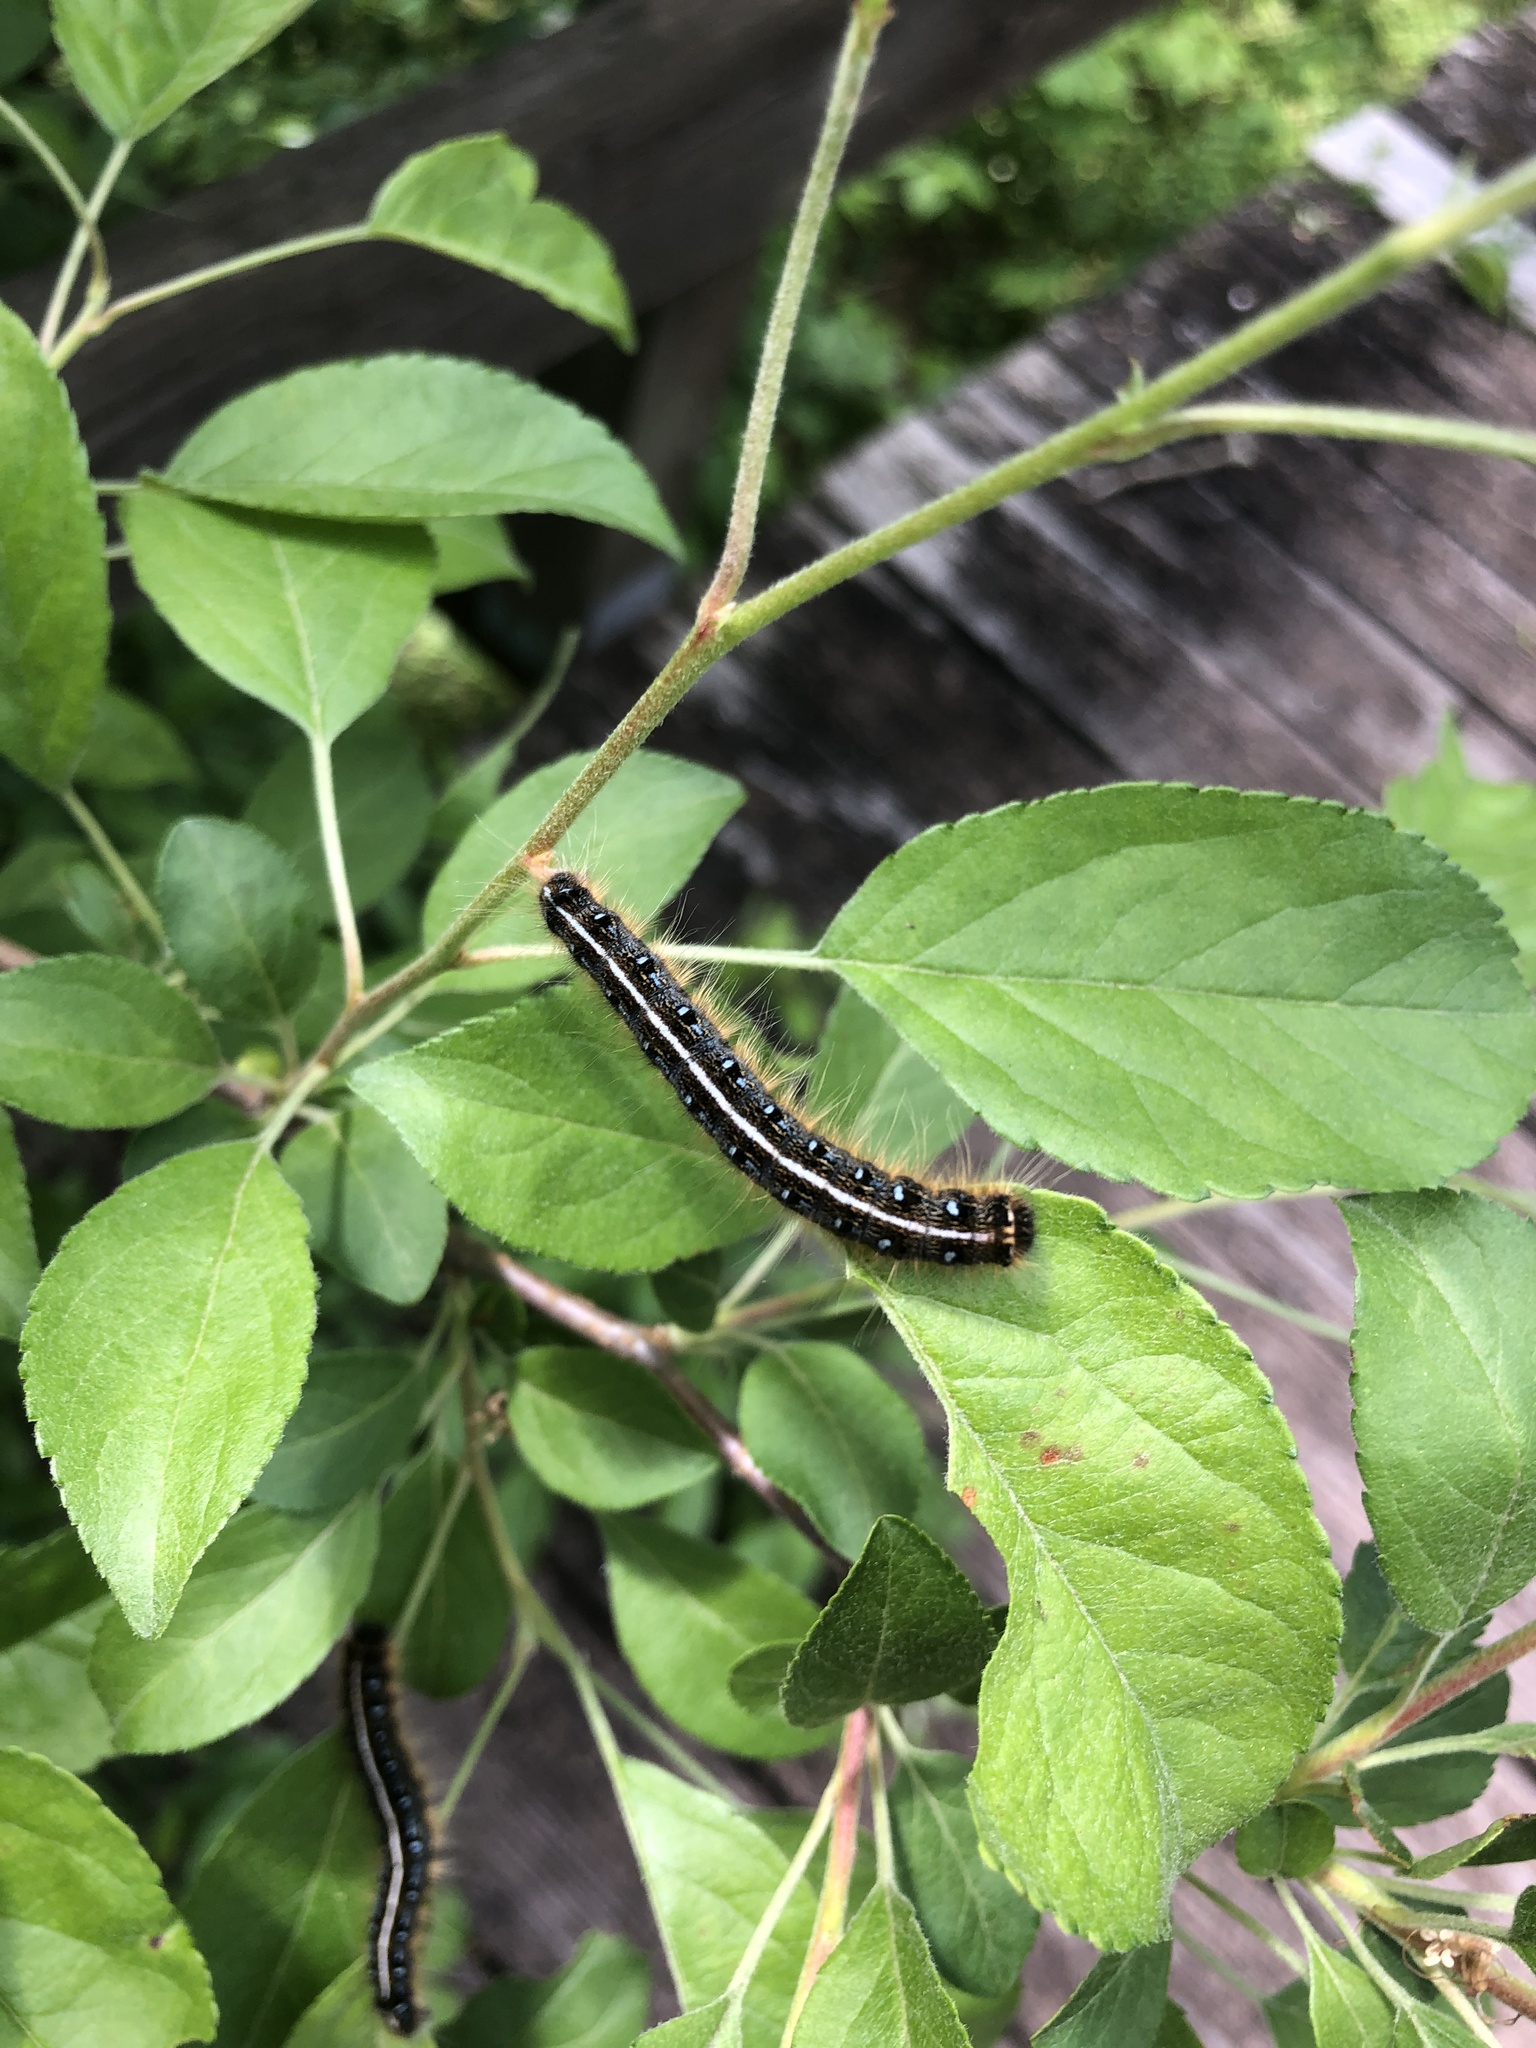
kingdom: Animalia
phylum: Arthropoda
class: Insecta
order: Lepidoptera
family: Lasiocampidae
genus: Malacosoma
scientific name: Malacosoma americana
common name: Eastern tent caterpillar moth
